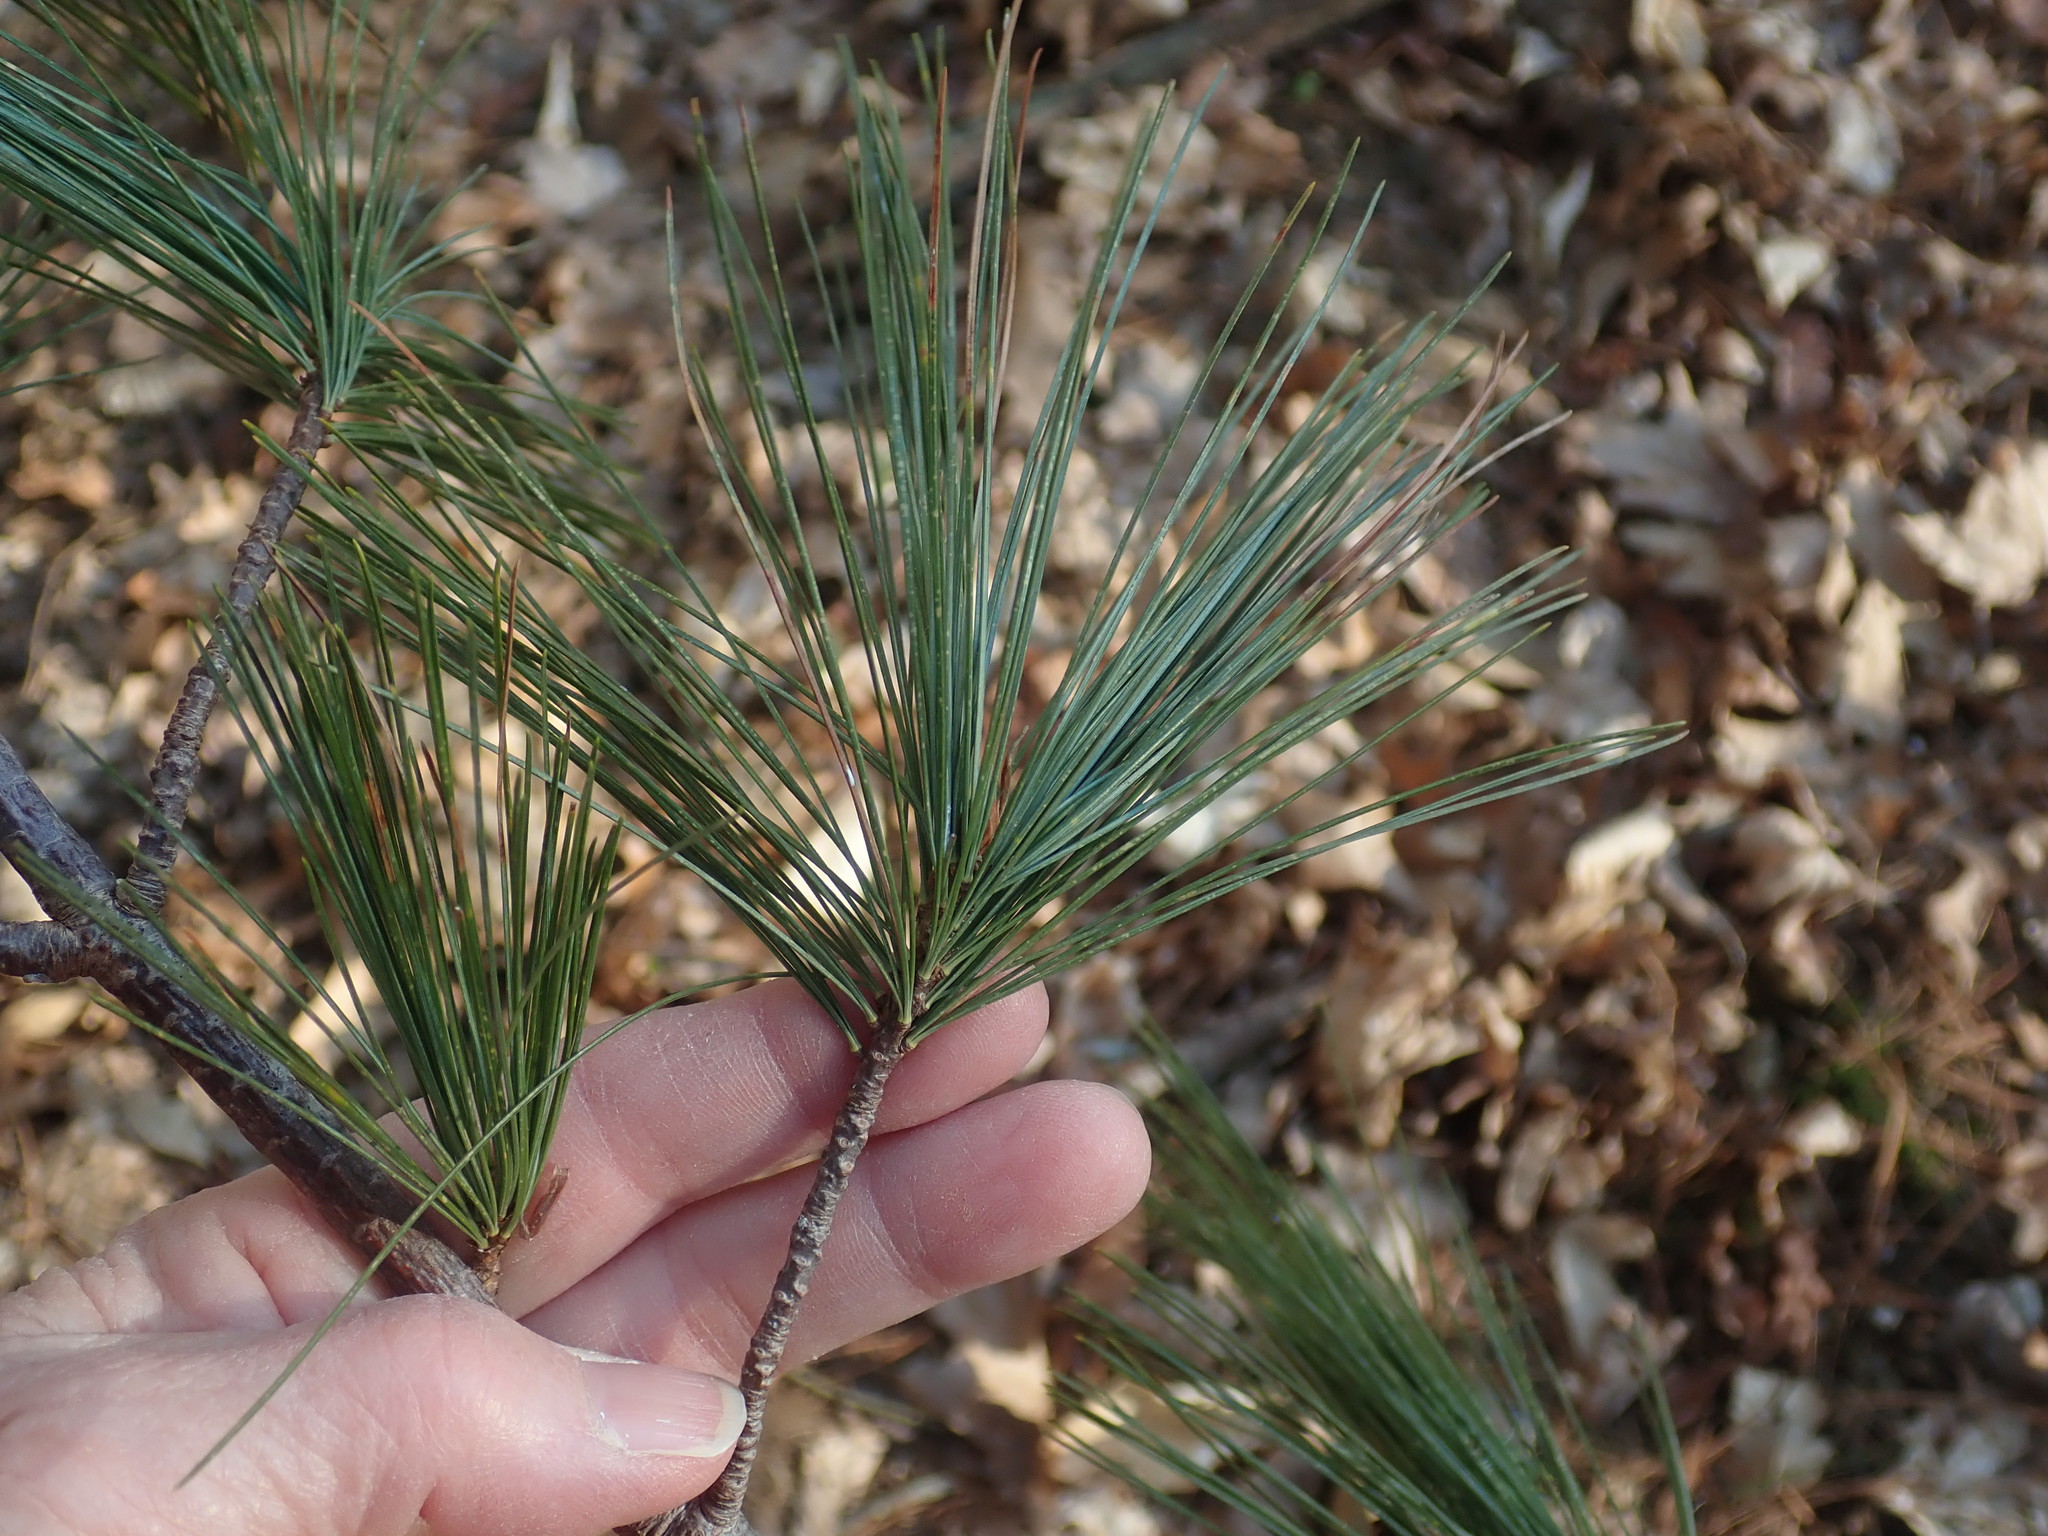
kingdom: Plantae
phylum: Tracheophyta
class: Pinopsida
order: Pinales
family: Pinaceae
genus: Pinus
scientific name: Pinus strobus
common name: Weymouth pine
